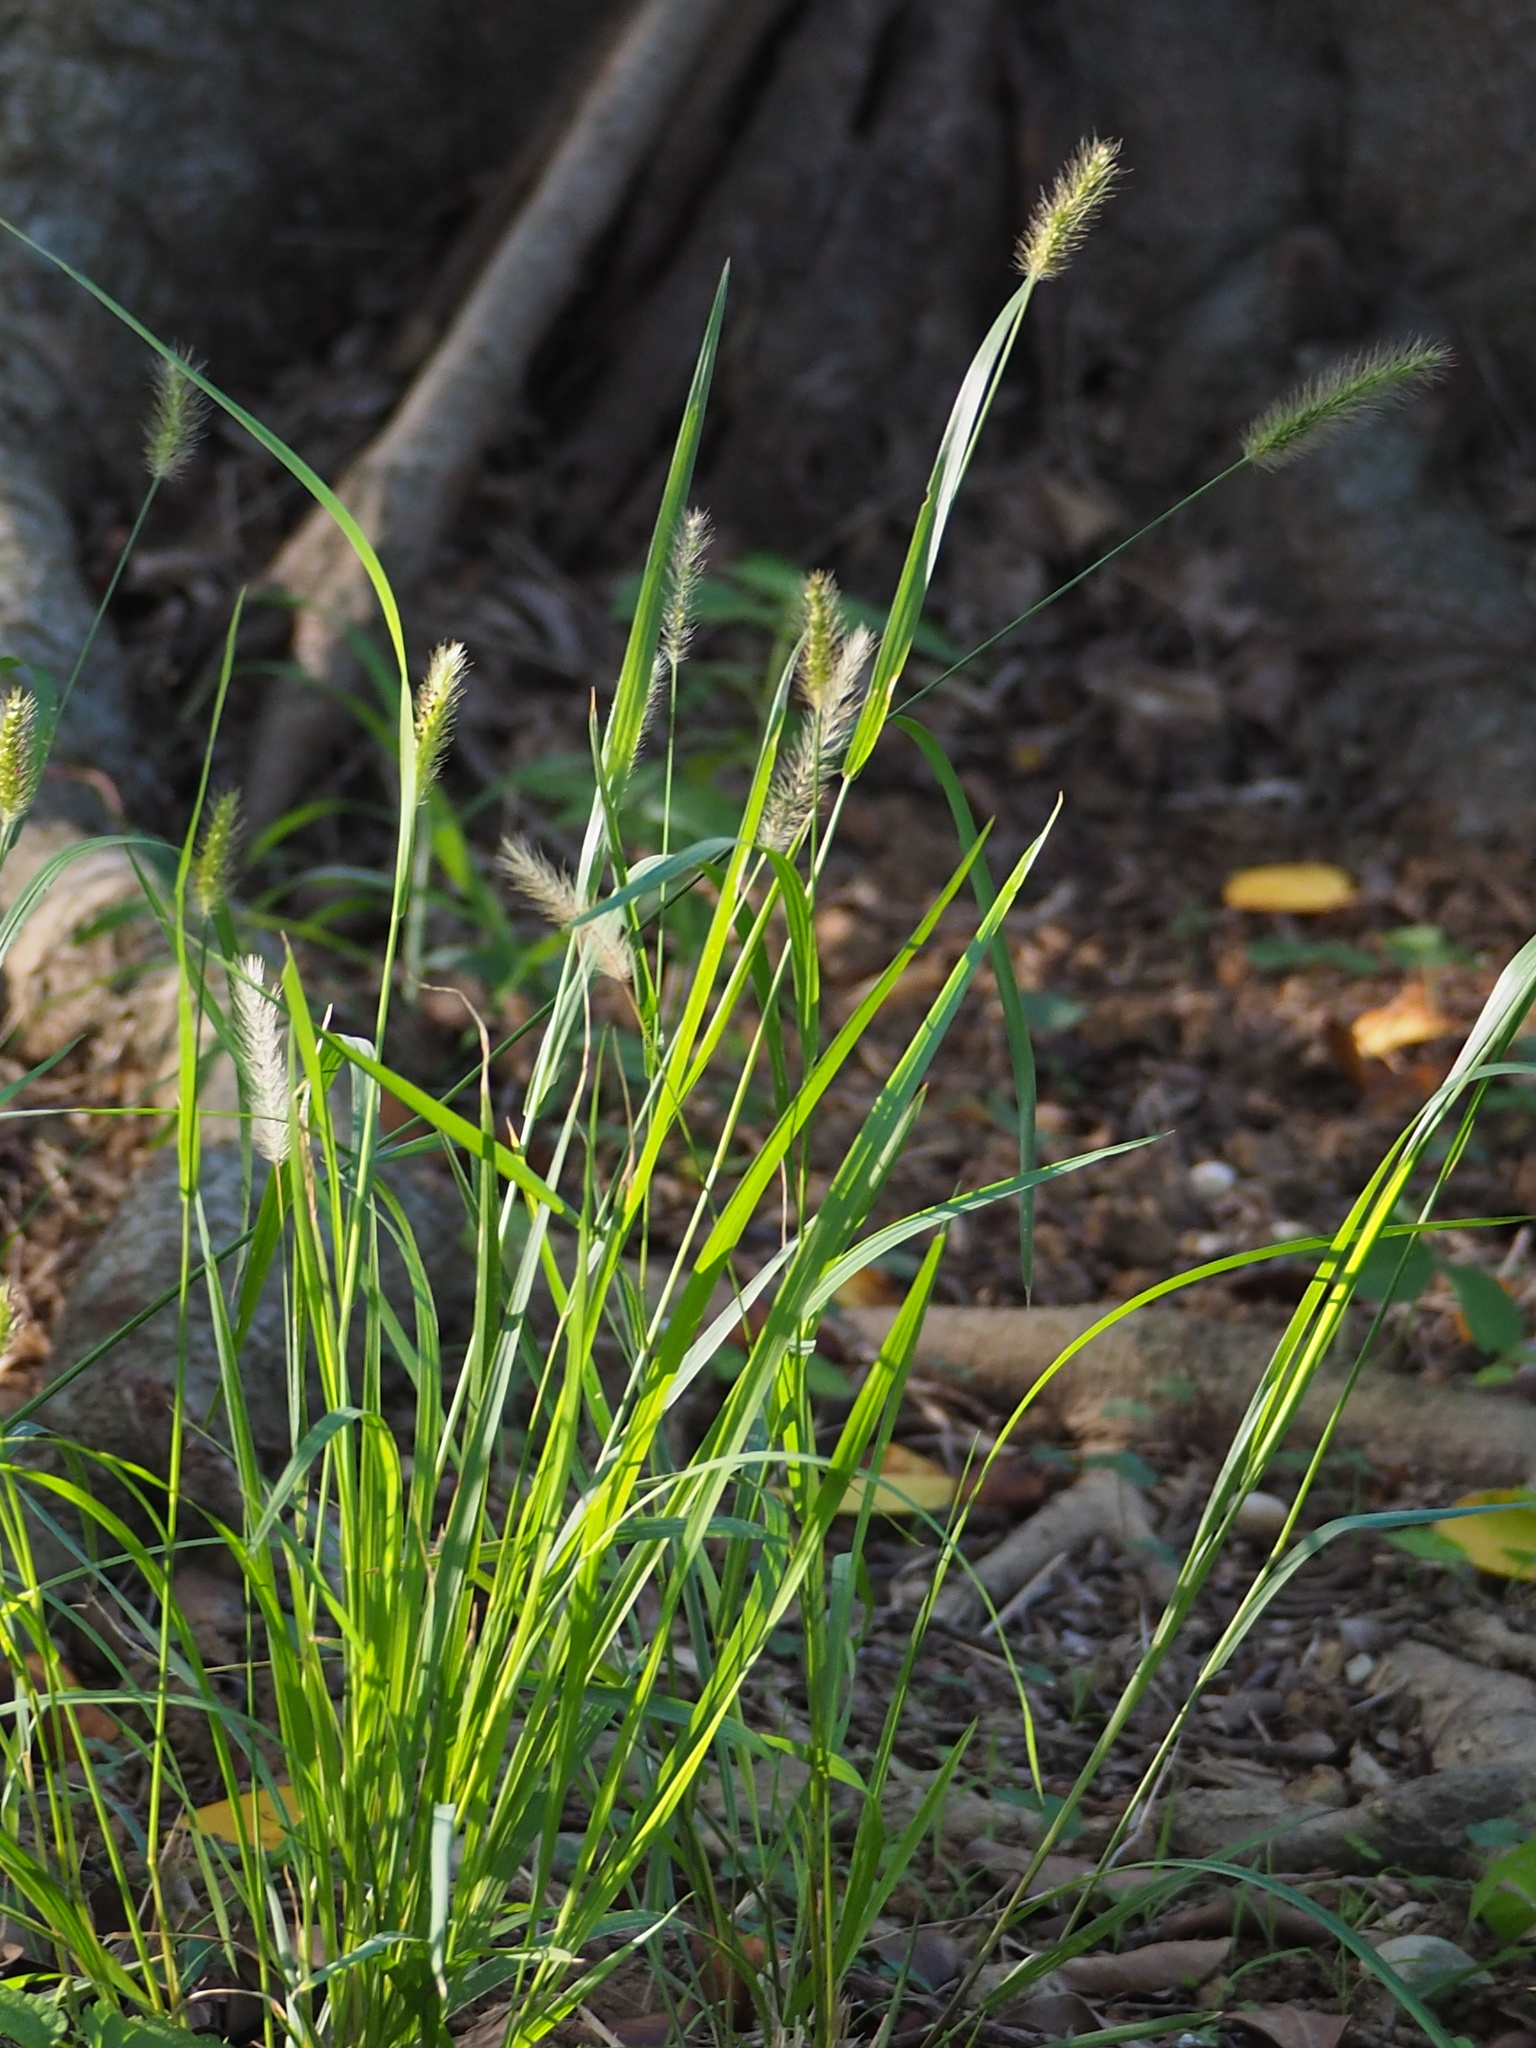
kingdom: Plantae
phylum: Tracheophyta
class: Liliopsida
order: Poales
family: Poaceae
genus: Setaria
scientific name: Setaria parviflora
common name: Knotroot bristle-grass
